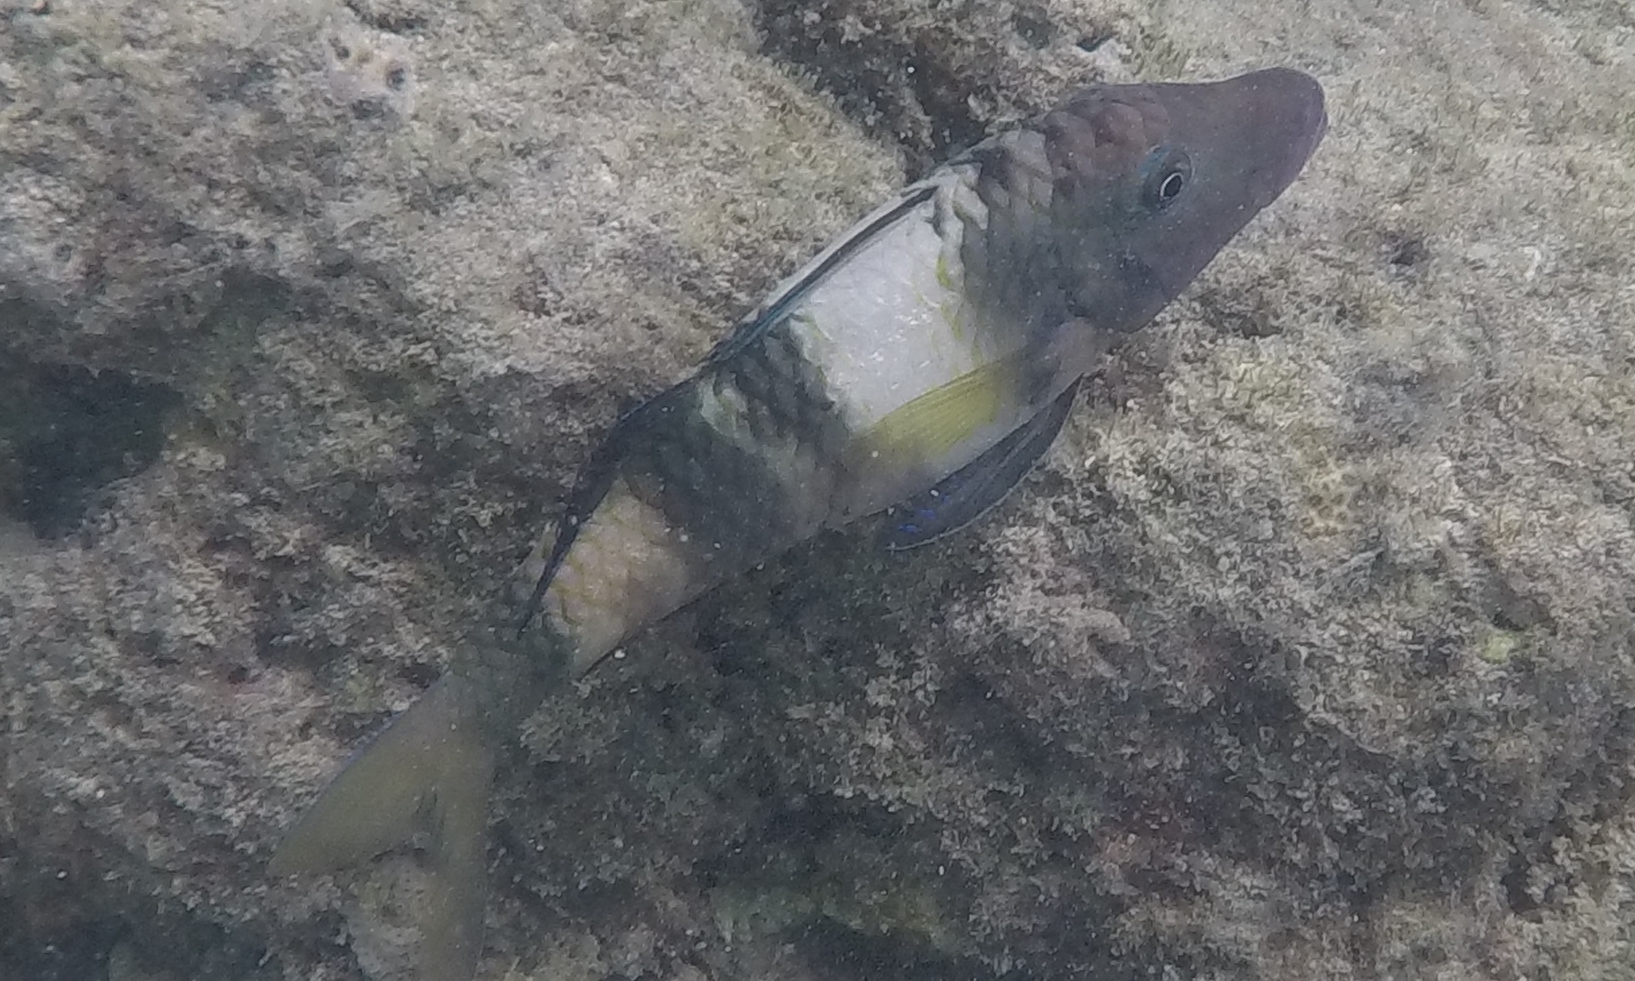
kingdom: Animalia
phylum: Chordata
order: Perciformes
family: Mullidae
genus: Parupeneus
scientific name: Parupeneus multifasciatus
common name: Manybar goatfish
